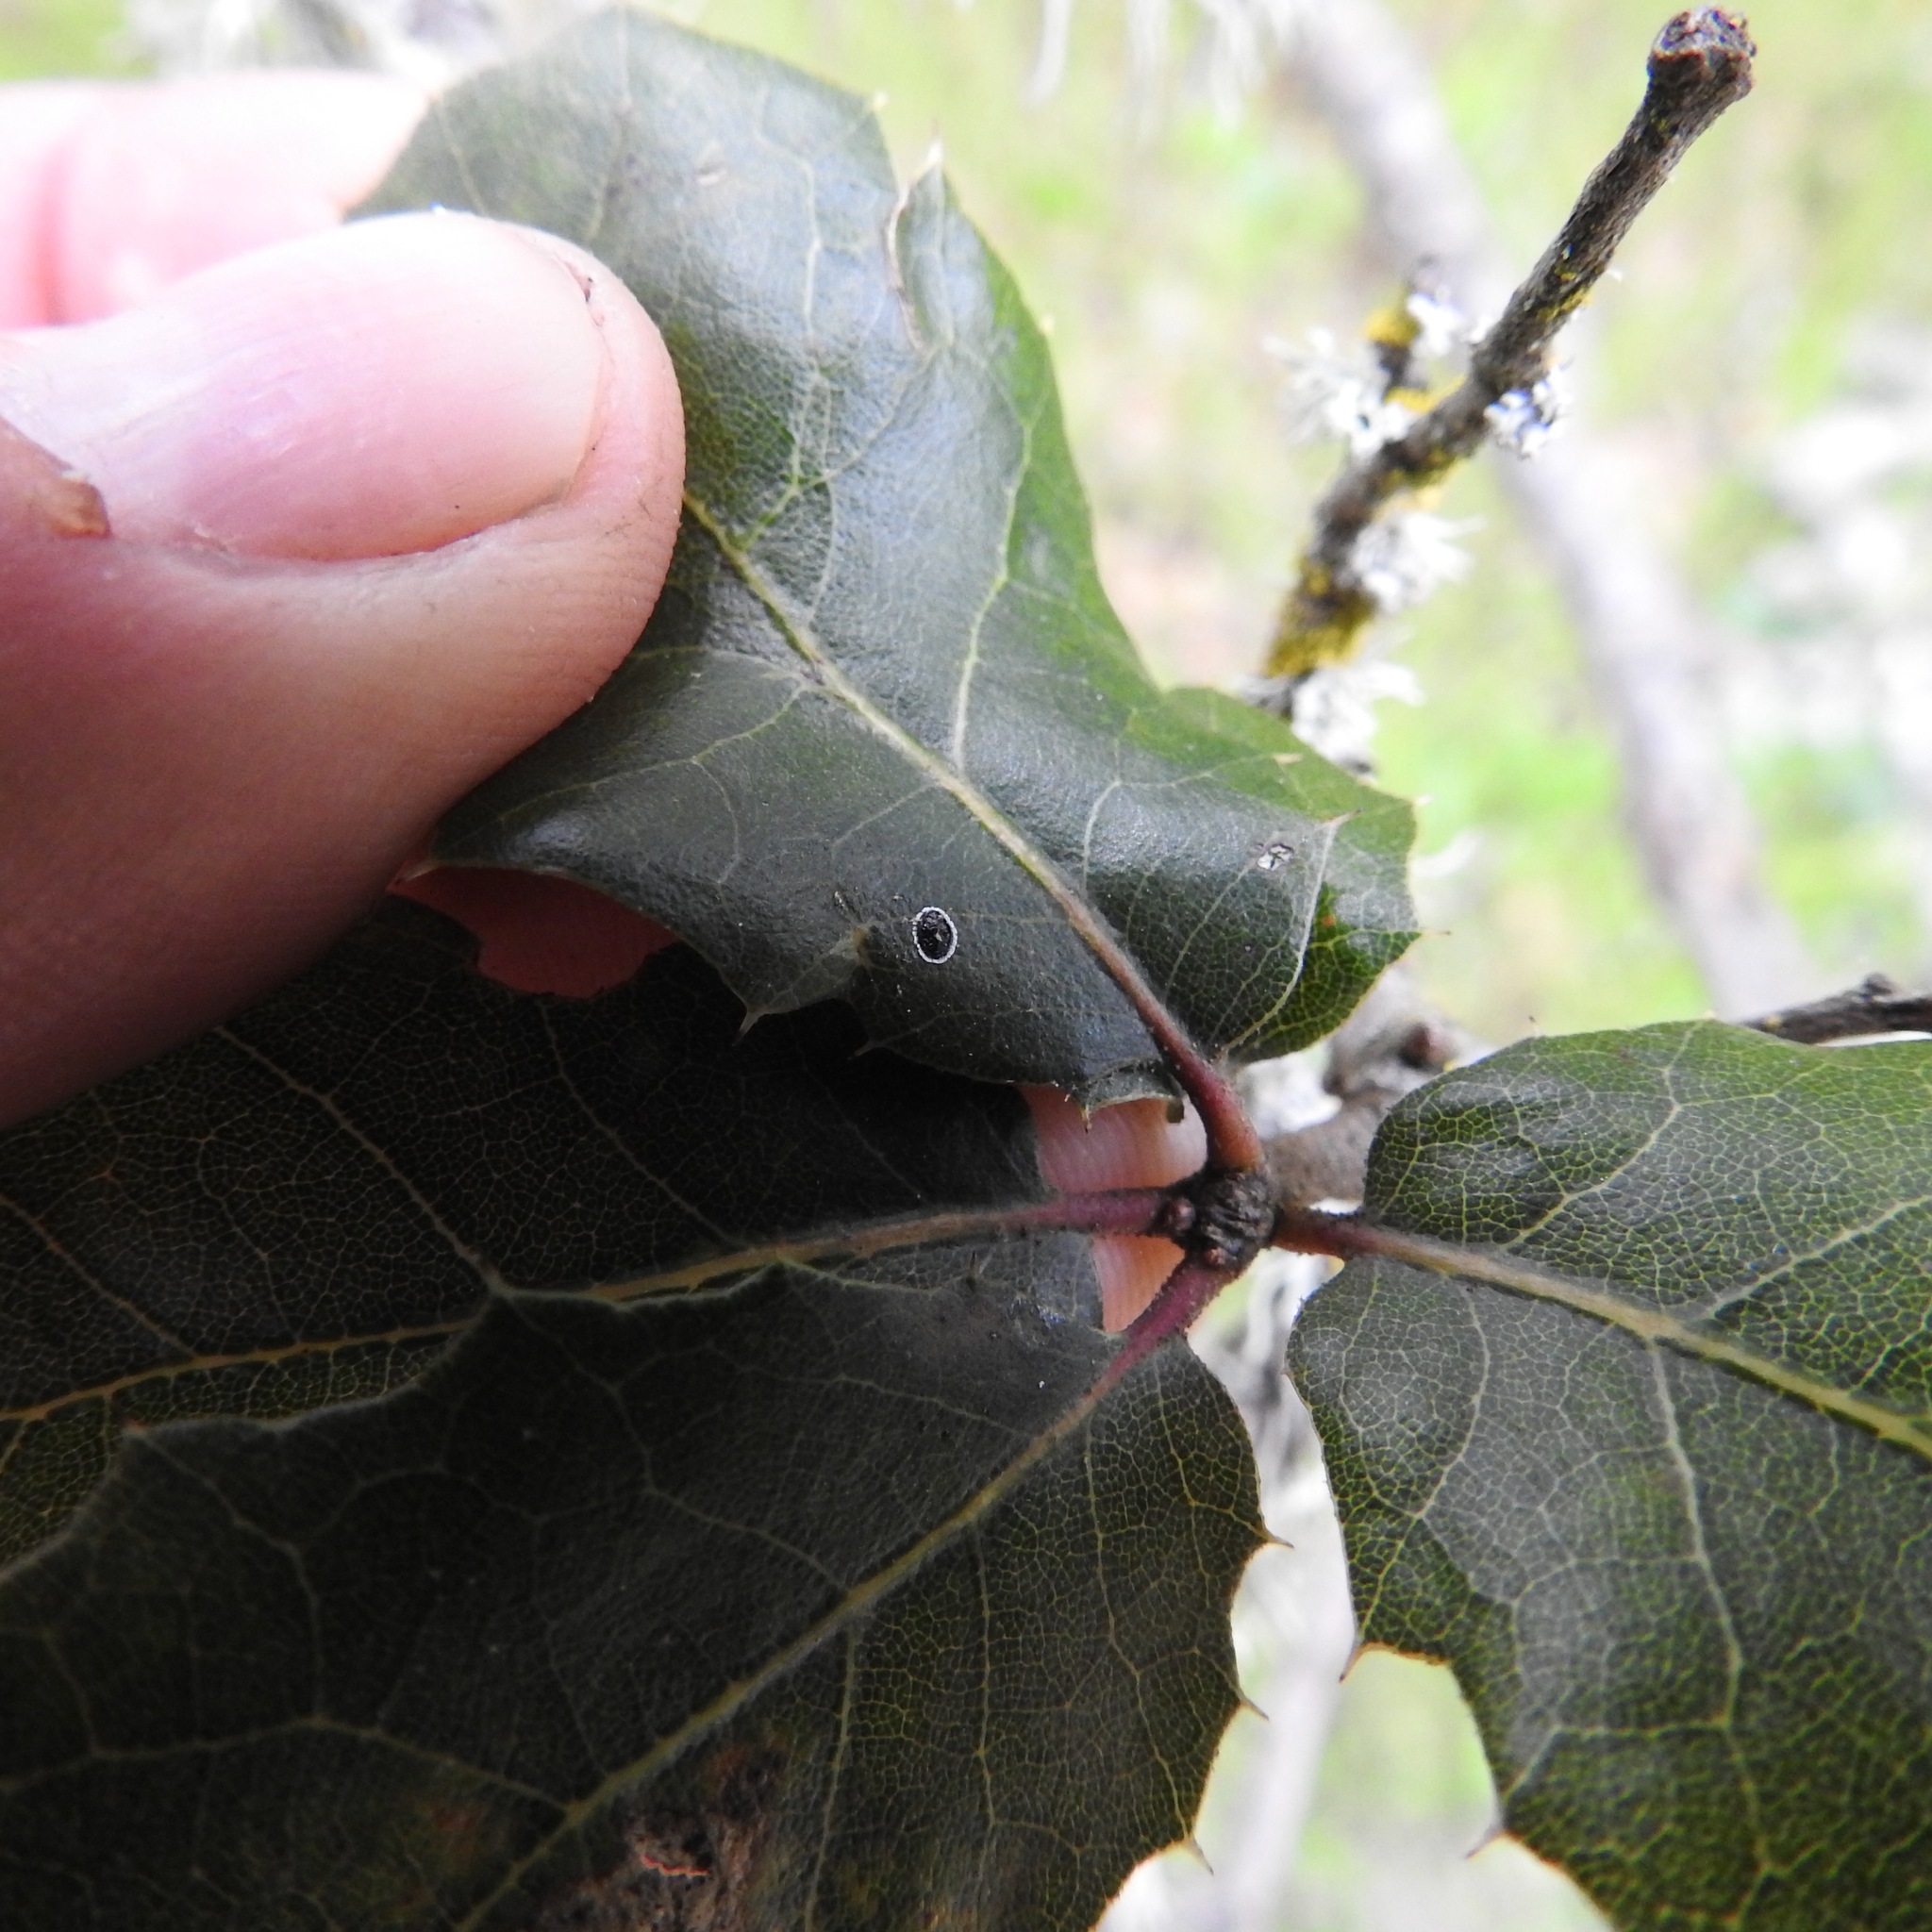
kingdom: Plantae
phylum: Tracheophyta
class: Magnoliopsida
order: Fagales
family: Fagaceae
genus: Quercus
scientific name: Quercus agrifolia
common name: California live oak
